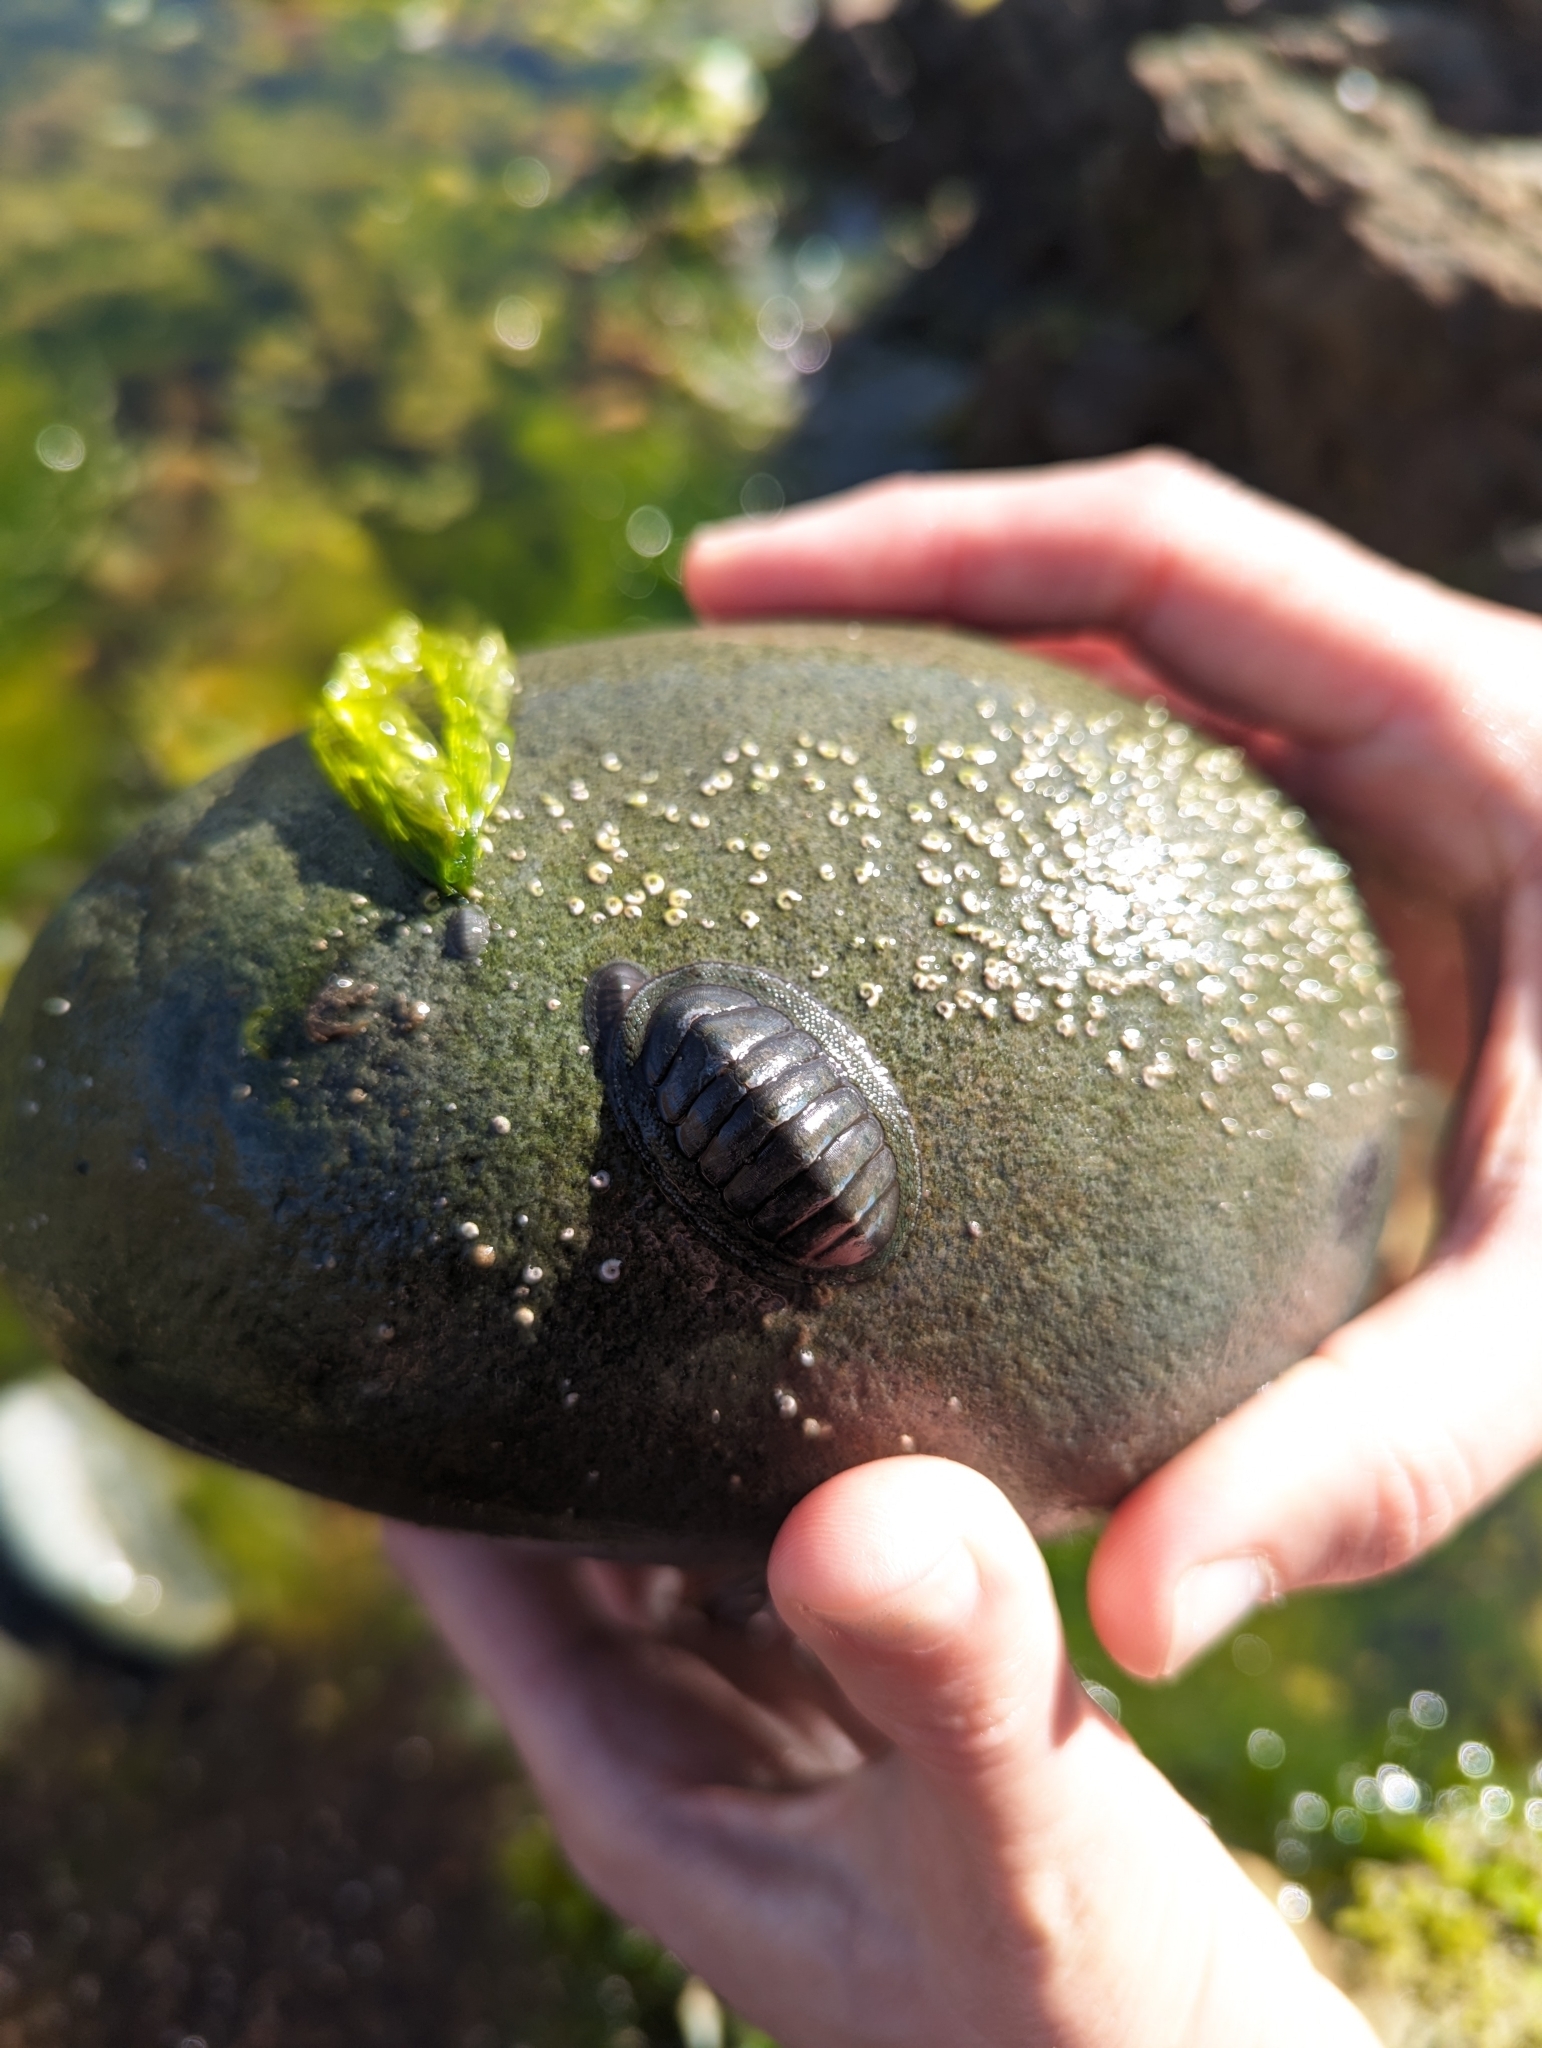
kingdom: Animalia
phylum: Mollusca
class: Polyplacophora
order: Chitonida
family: Chitonidae
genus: Chiton
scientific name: Chiton glaucus
